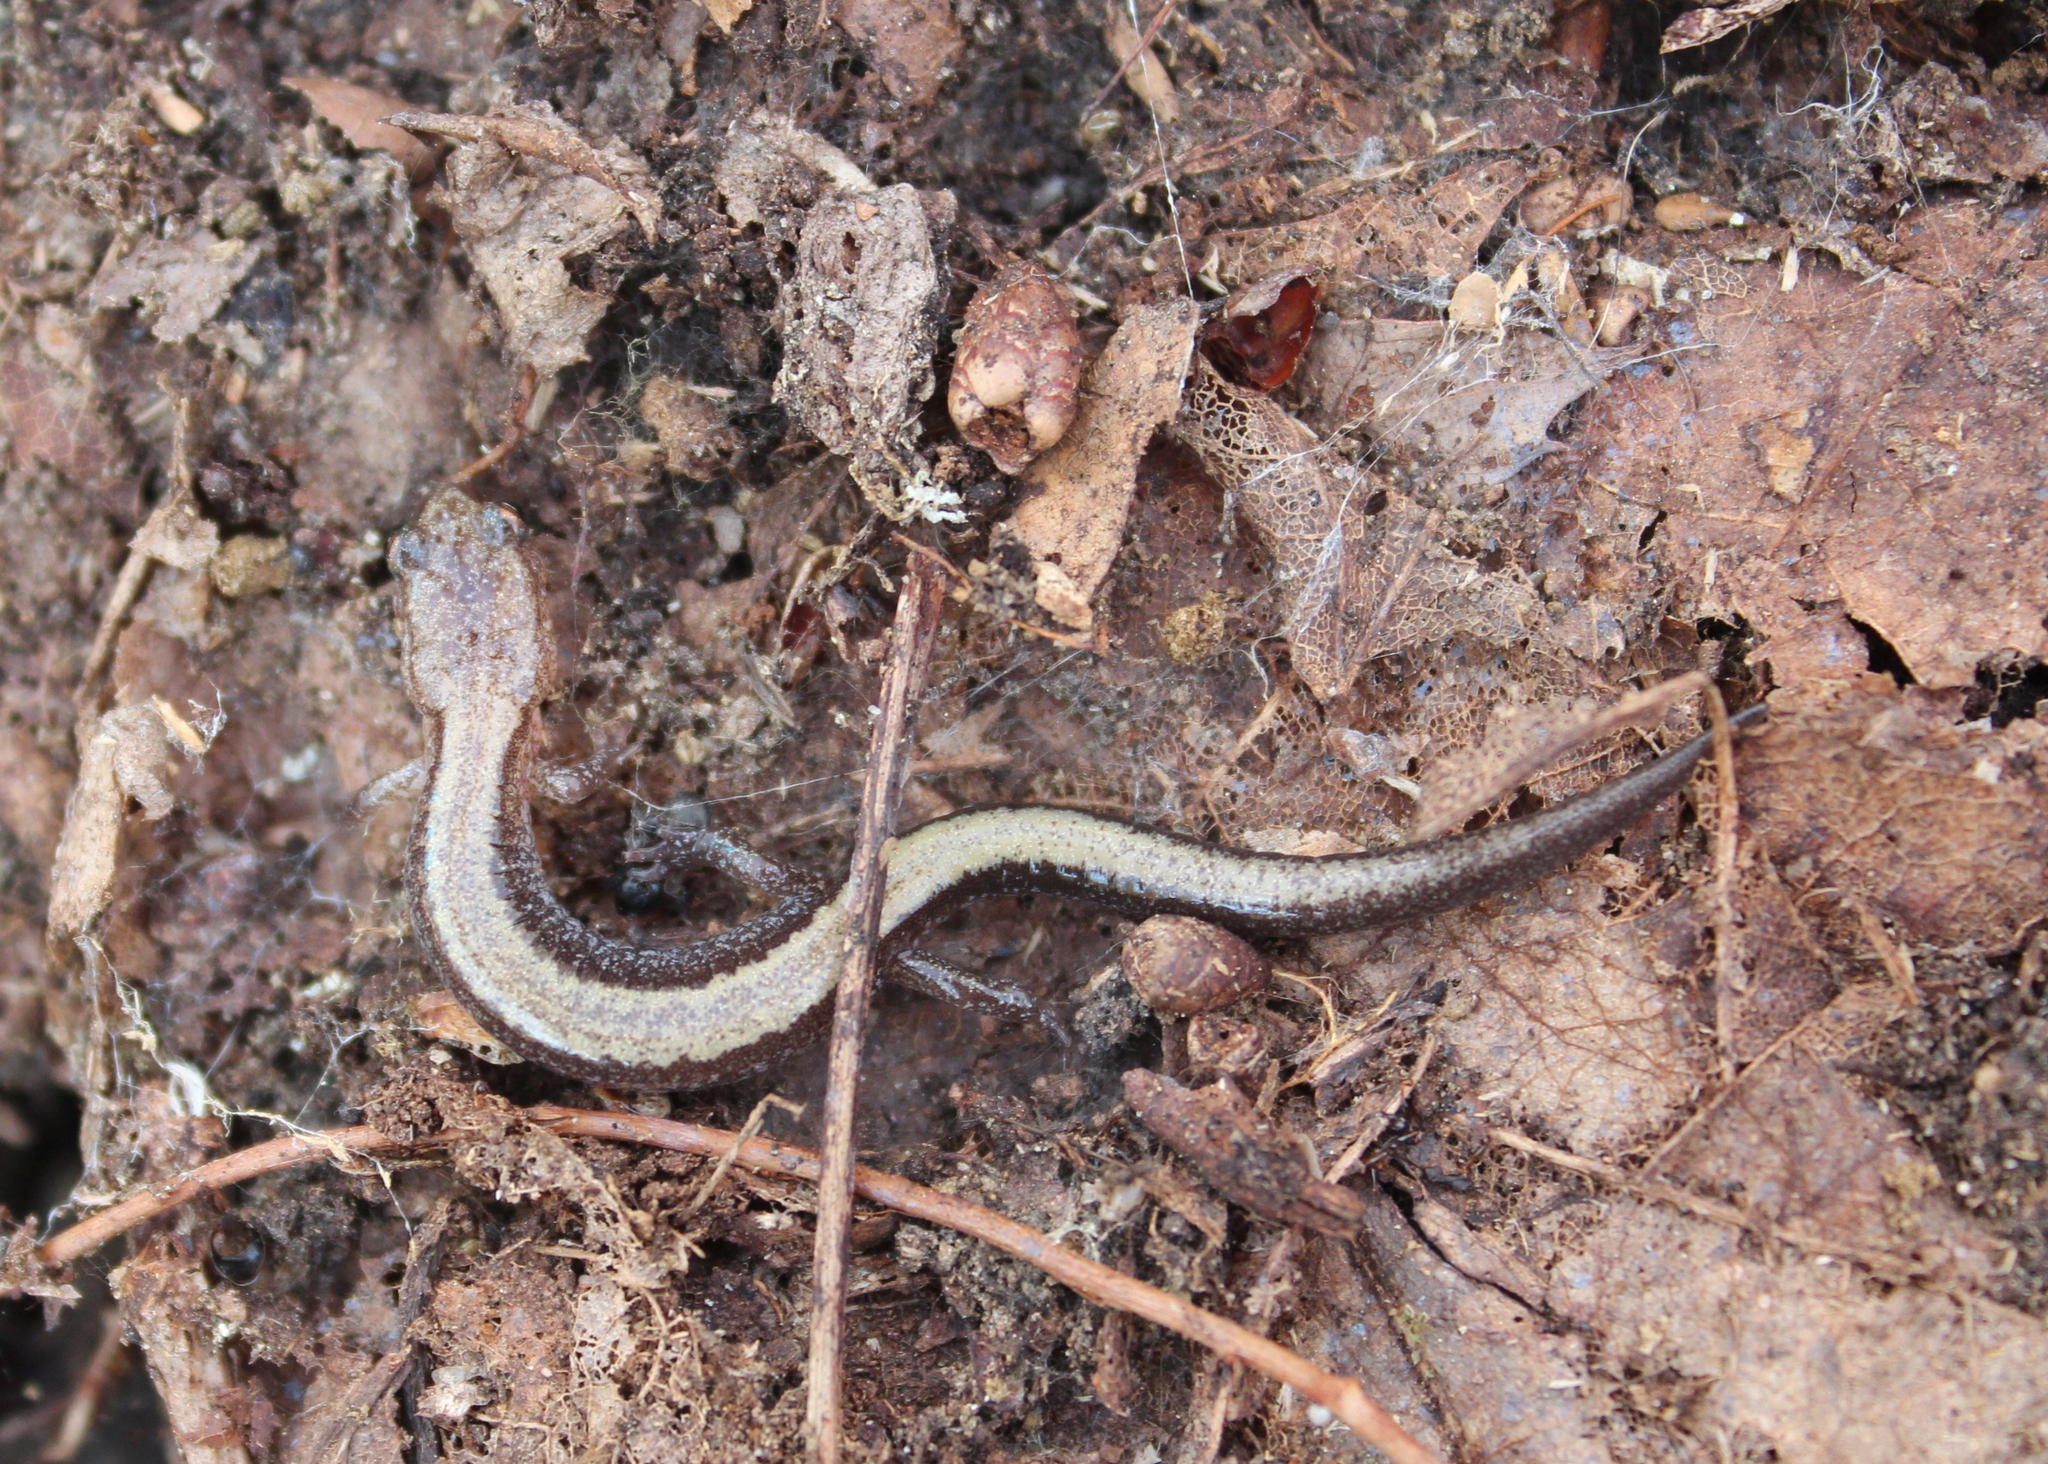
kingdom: Animalia
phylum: Chordata
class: Amphibia
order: Caudata
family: Plethodontidae
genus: Plethodon
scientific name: Plethodon cinereus
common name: Redback salamander
